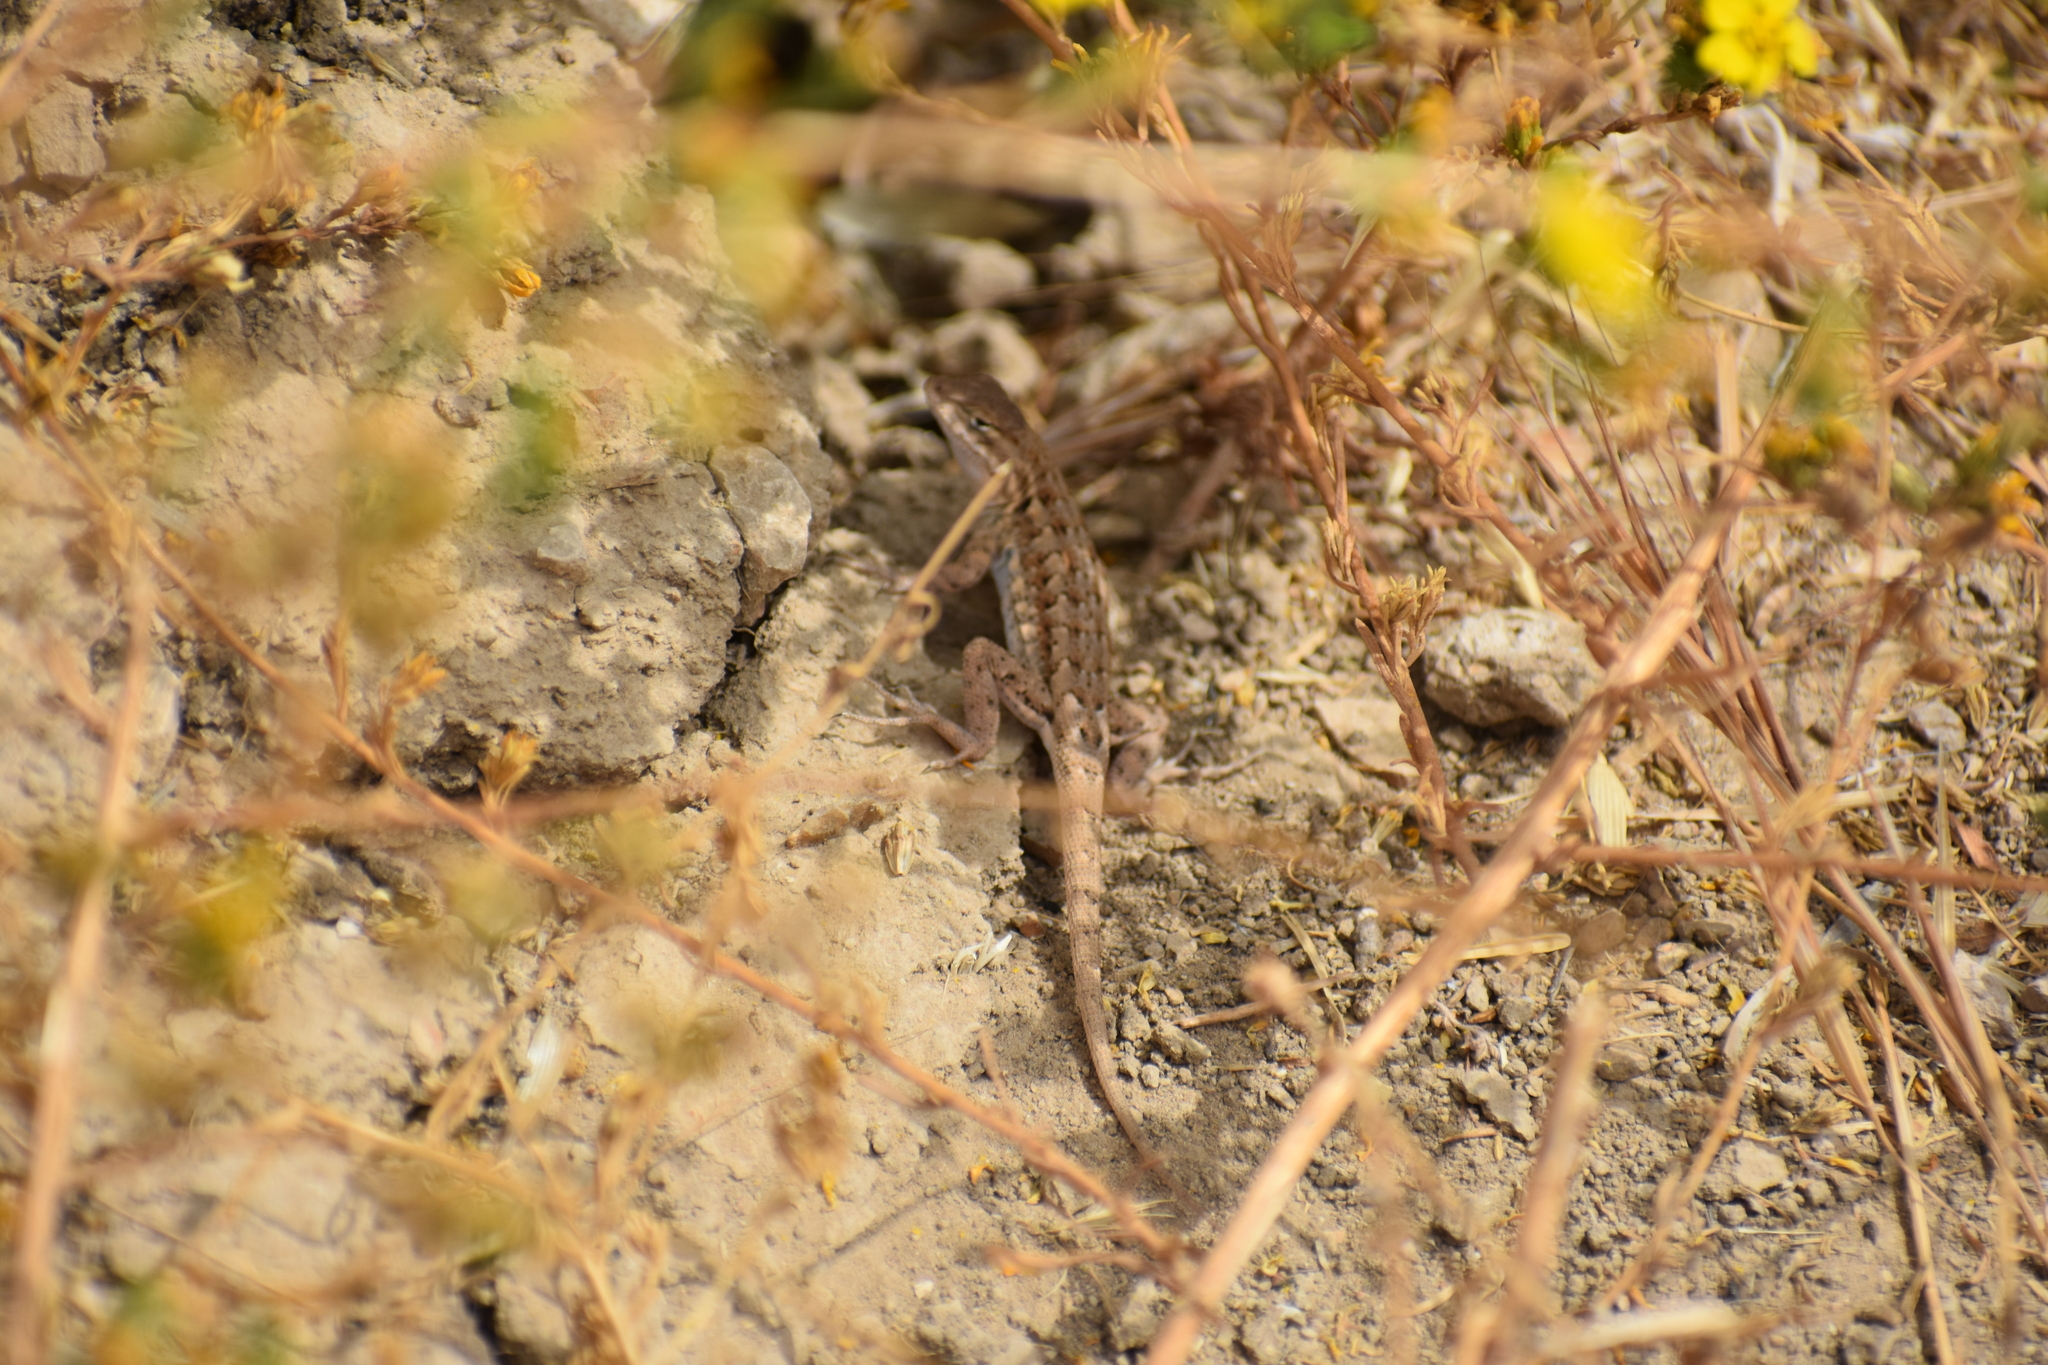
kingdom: Animalia
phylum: Chordata
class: Squamata
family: Phrynosomatidae
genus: Uta
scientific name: Uta stansburiana
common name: Side-blotched lizard
